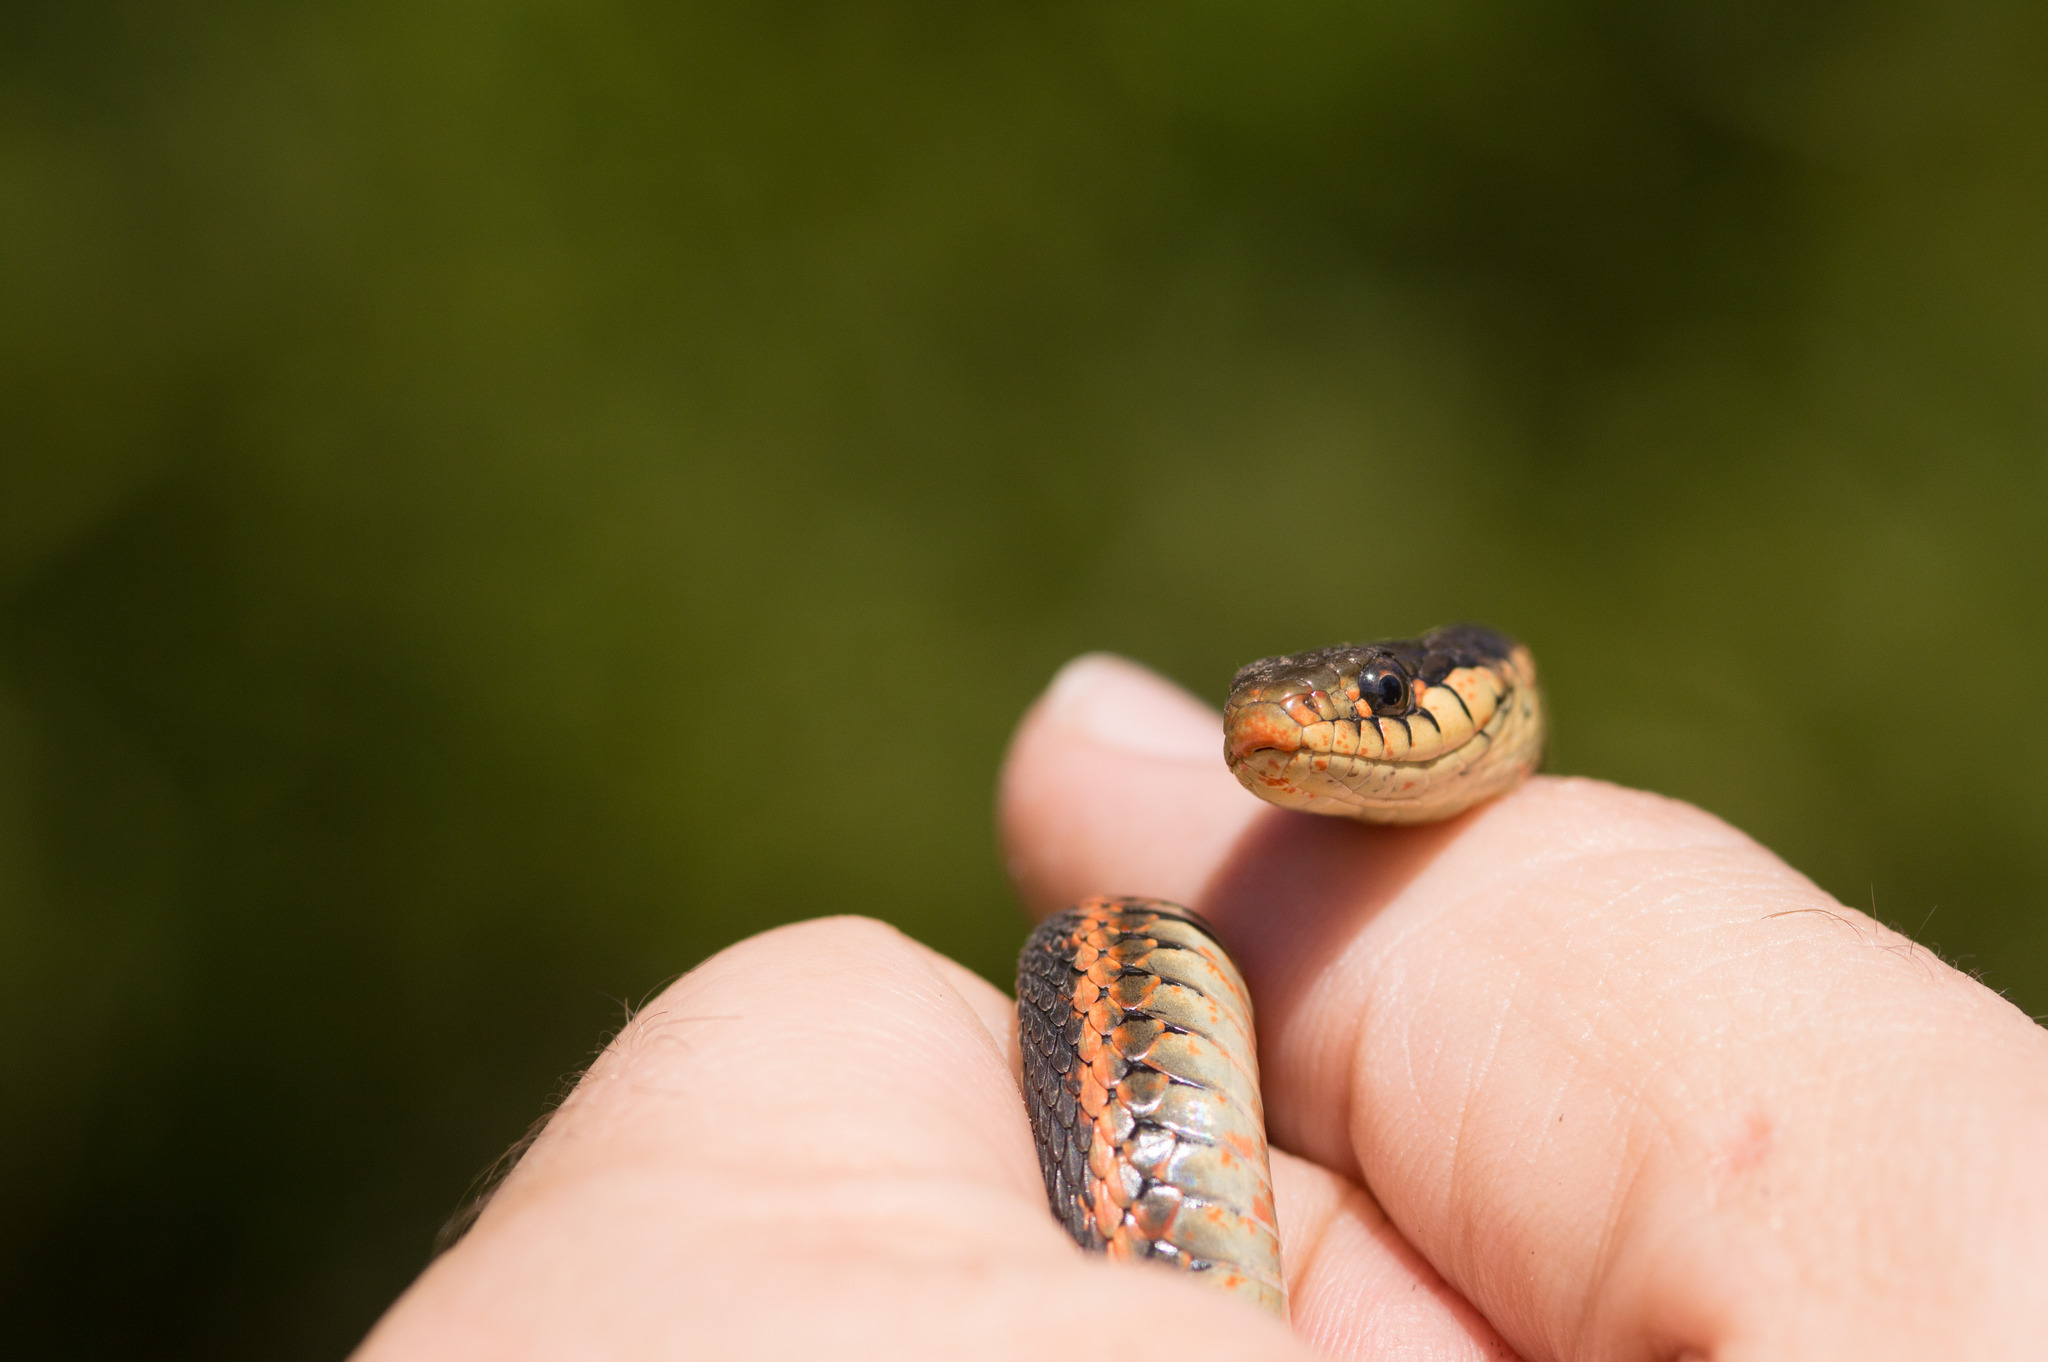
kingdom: Animalia
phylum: Chordata
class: Squamata
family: Colubridae
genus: Thamnophis
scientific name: Thamnophis elegans
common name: Western terrestrial garter snake
